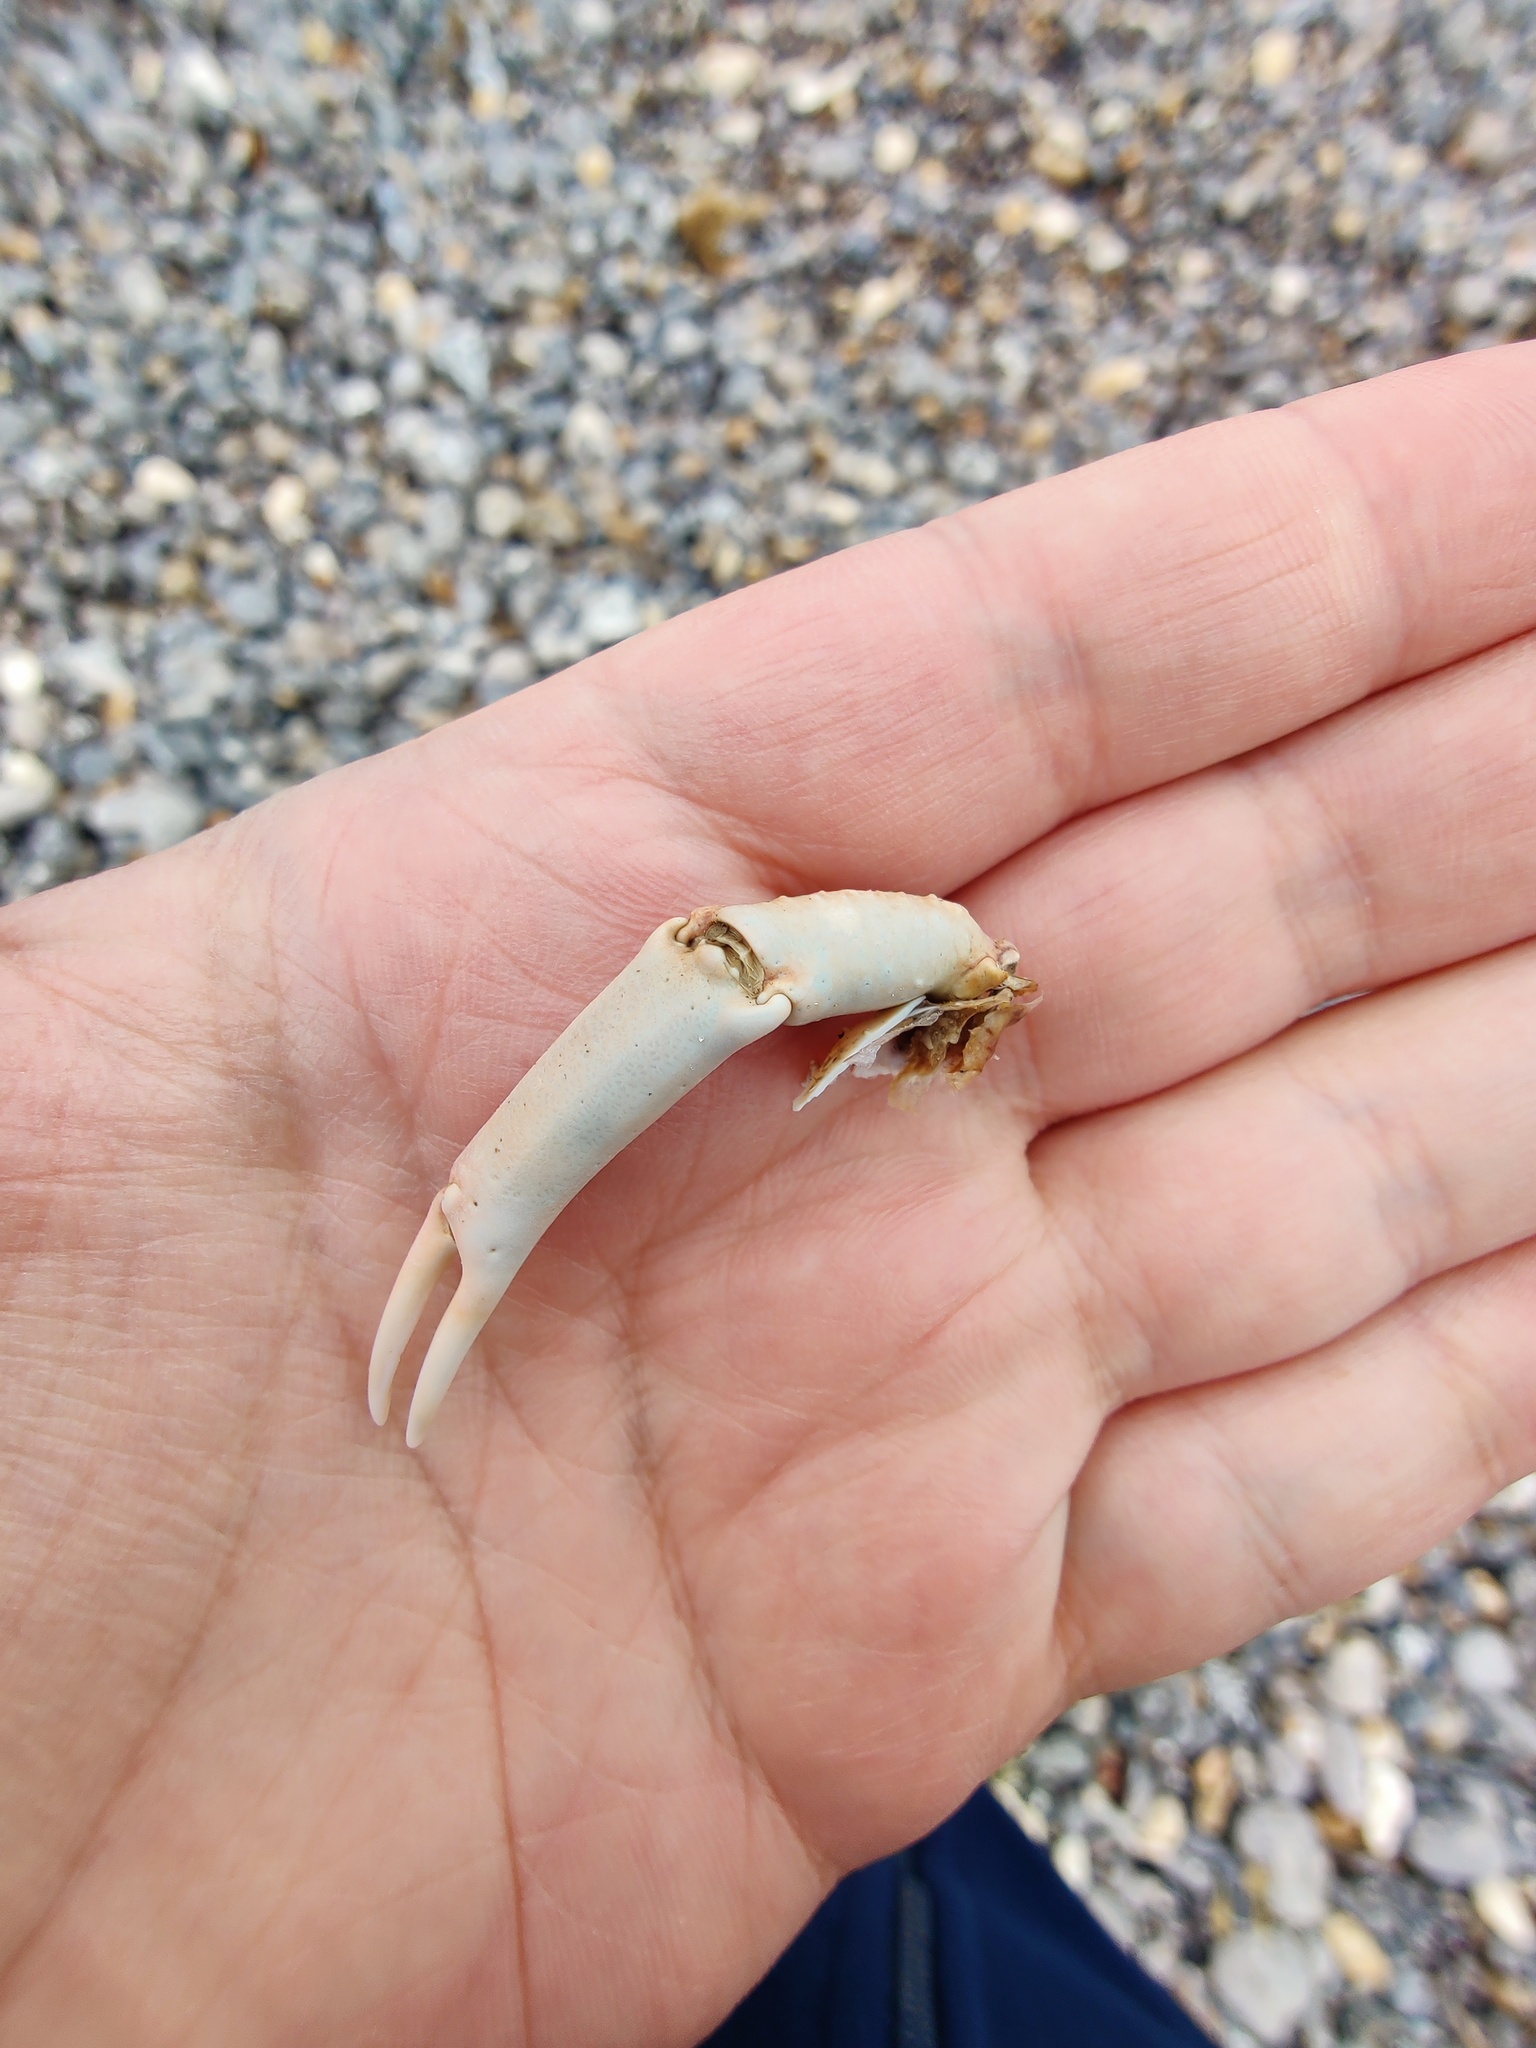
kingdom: Animalia
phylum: Arthropoda
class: Malacostraca
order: Decapoda
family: Majidae
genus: Maja
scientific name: Maja brachydactyla
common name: Common spider crab
